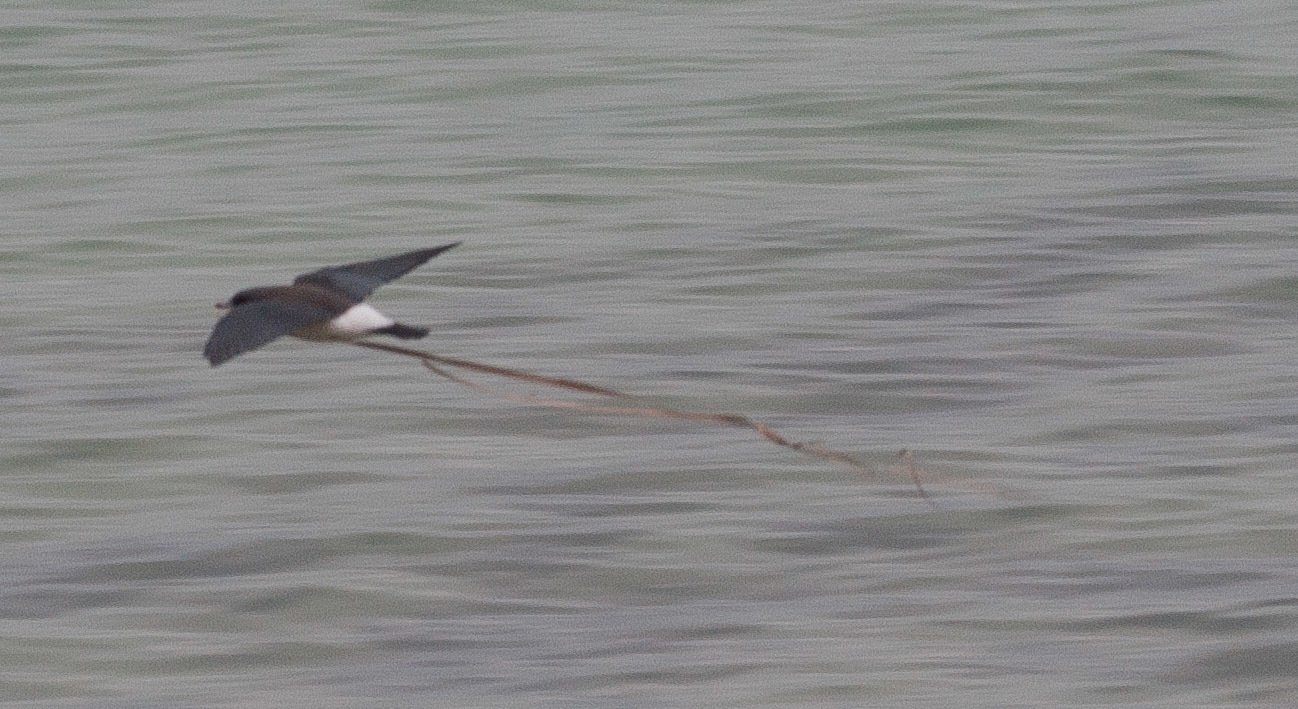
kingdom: Animalia
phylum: Chordata
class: Aves
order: Passeriformes
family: Artamidae
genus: Artamus
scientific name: Artamus leucoryn
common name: White-breasted woodswallow
